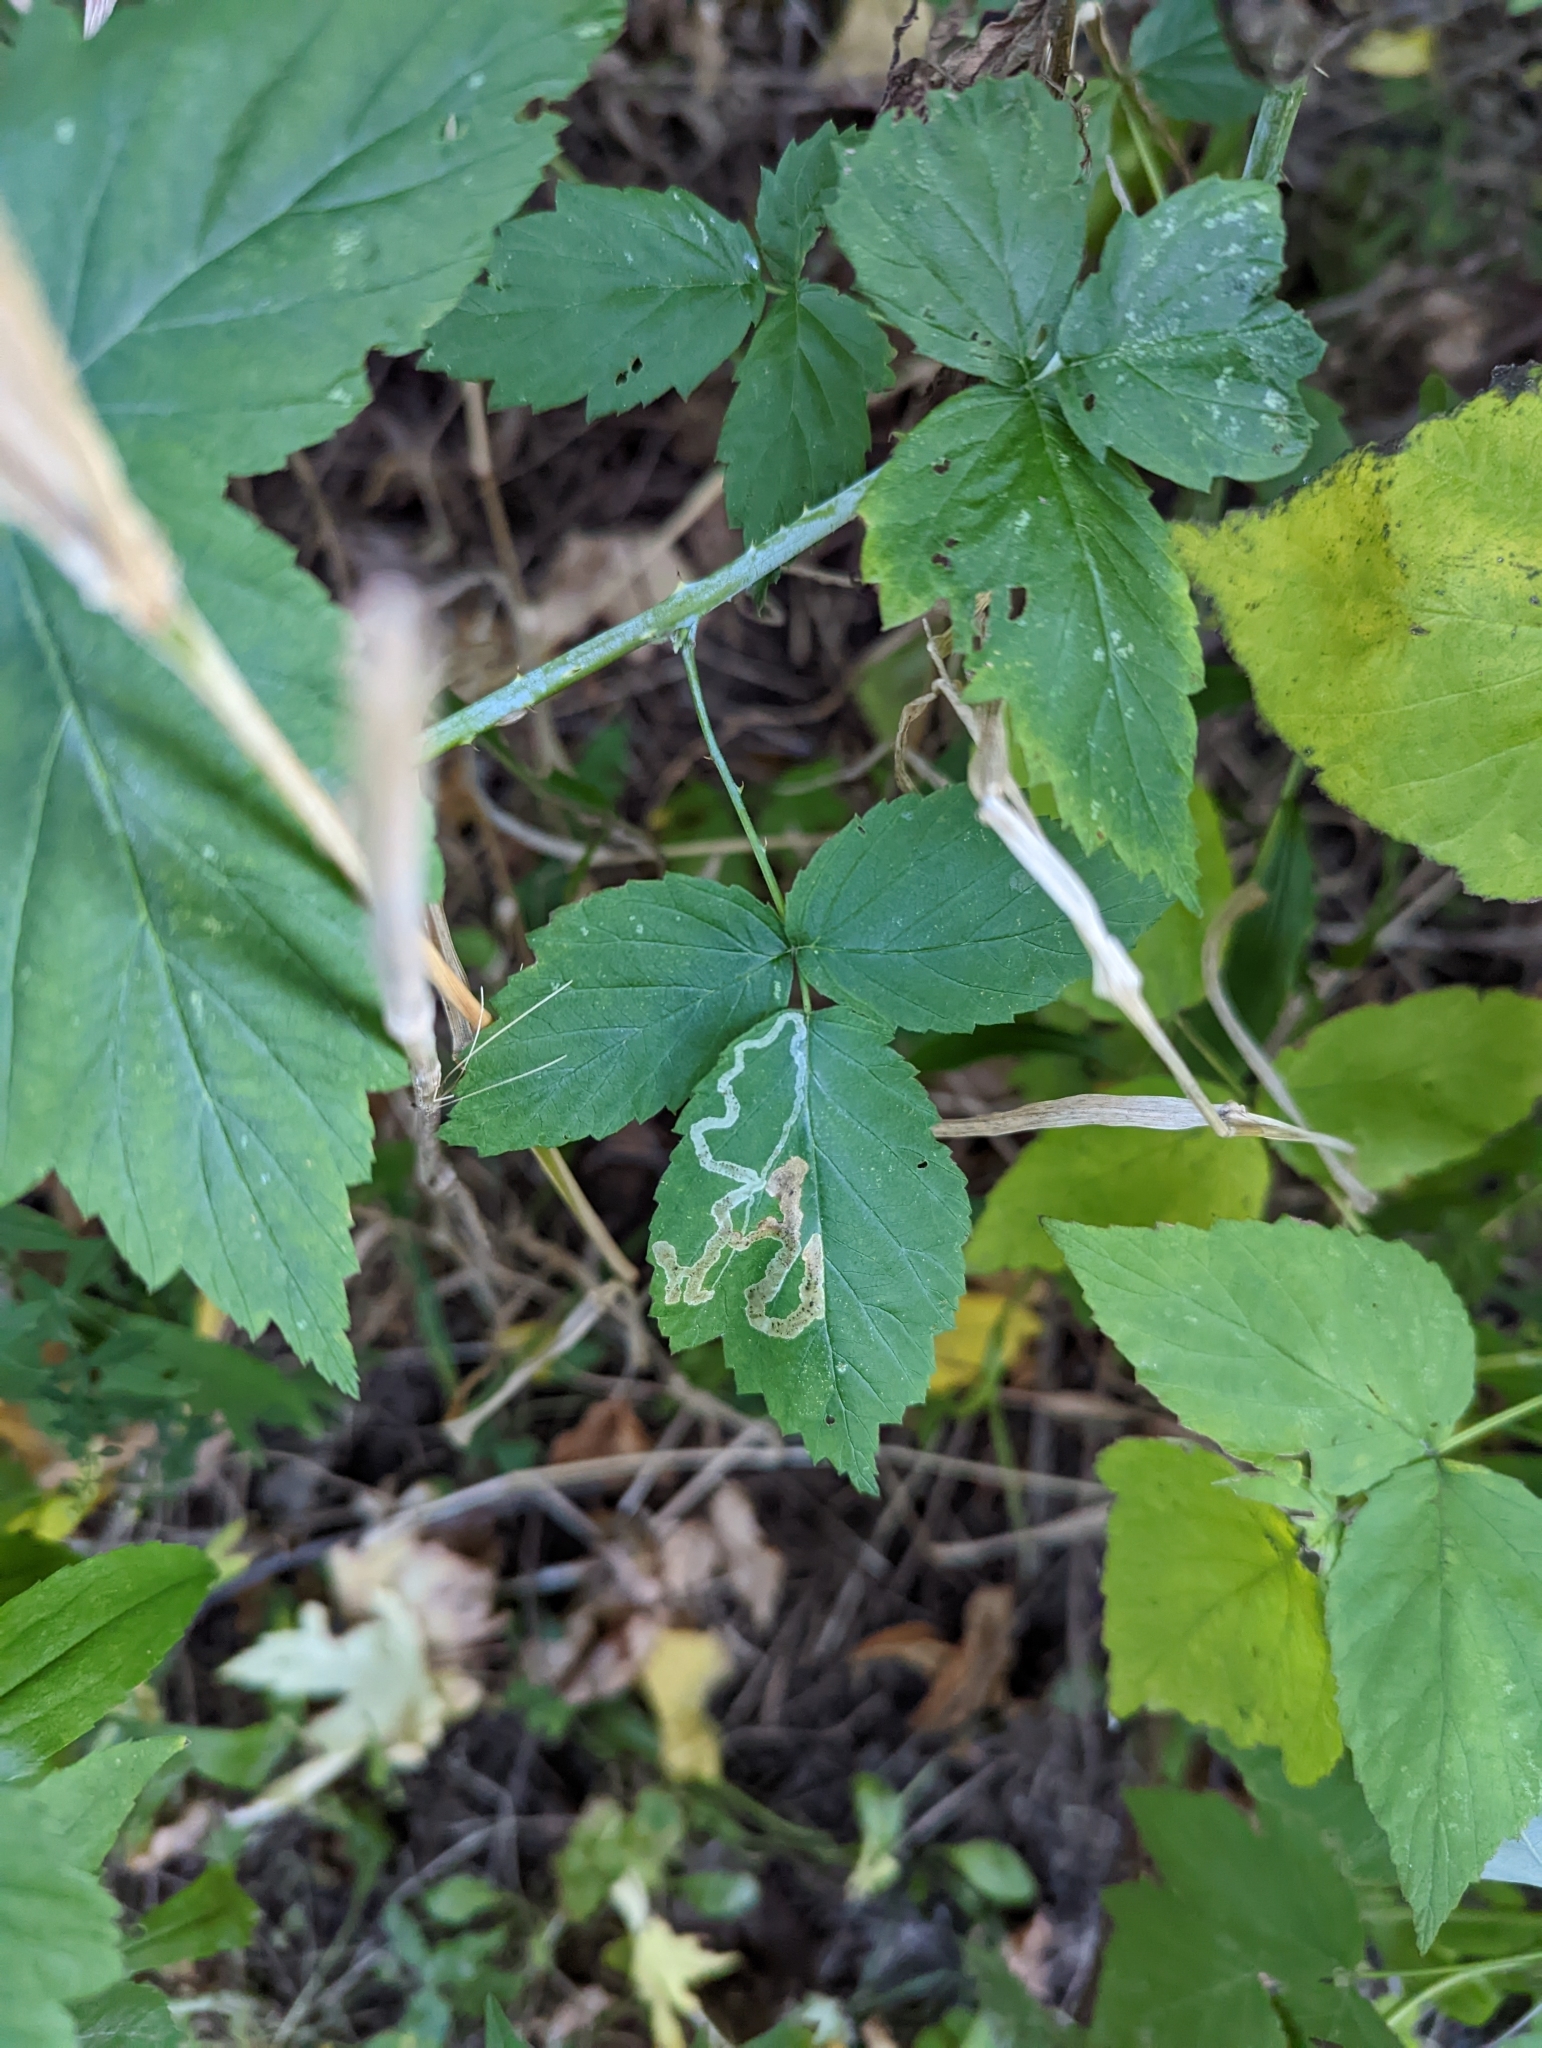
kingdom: Animalia
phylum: Arthropoda
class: Insecta
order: Diptera
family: Agromyzidae
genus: Agromyza
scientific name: Agromyza vockerothi
